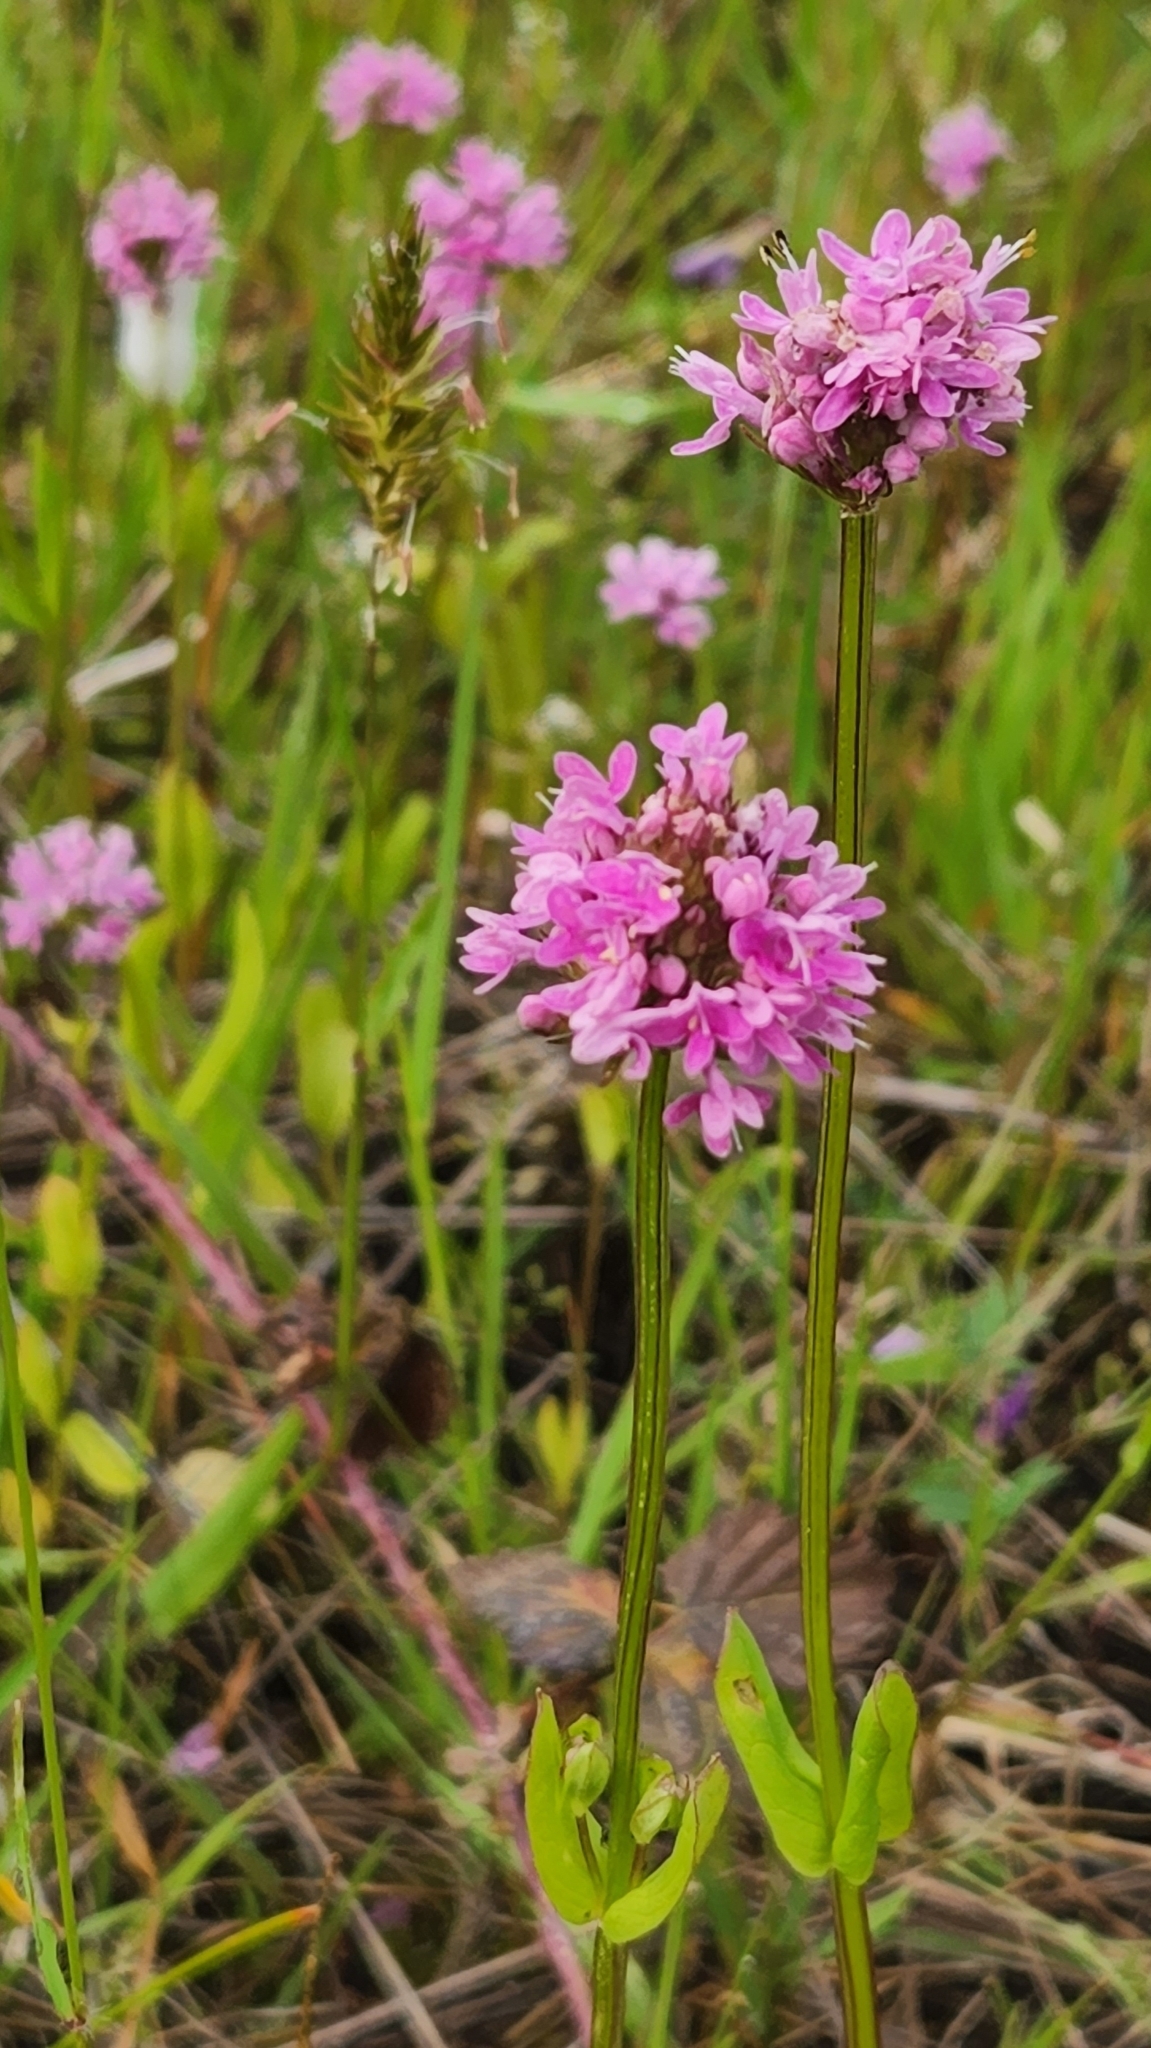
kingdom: Plantae
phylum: Tracheophyta
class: Magnoliopsida
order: Dipsacales
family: Caprifoliaceae
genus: Plectritis
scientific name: Plectritis congesta
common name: Pink plectritis
